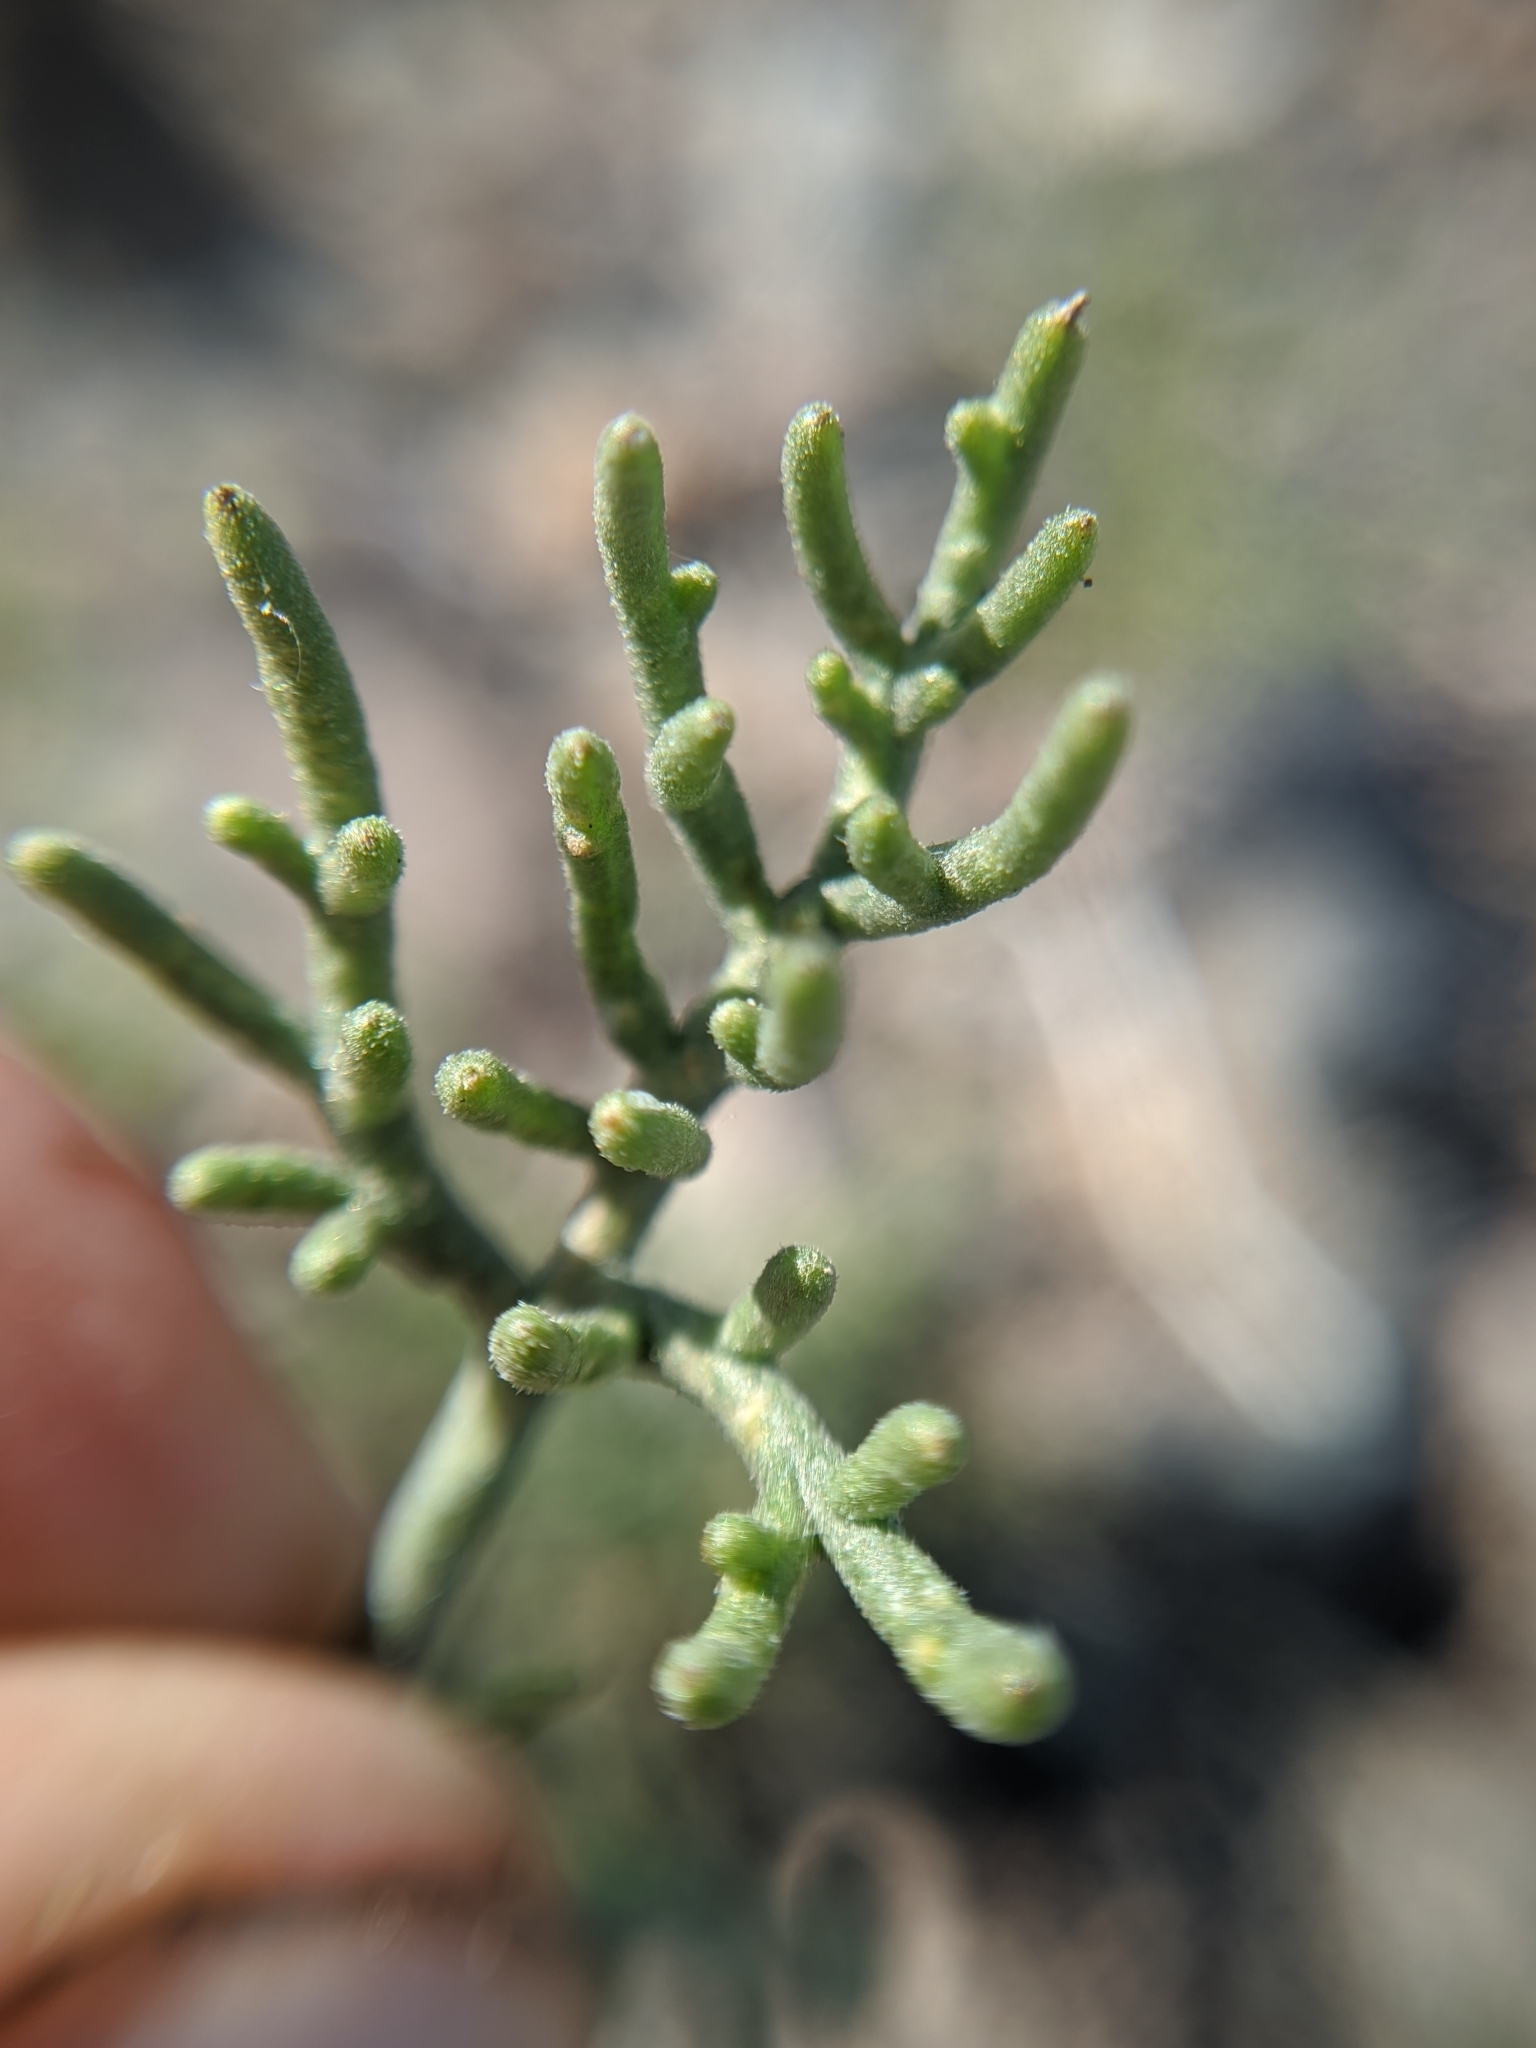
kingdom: Plantae
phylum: Tracheophyta
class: Magnoliopsida
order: Asterales
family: Asteraceae
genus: Chaenactis
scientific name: Chaenactis carphoclinia
